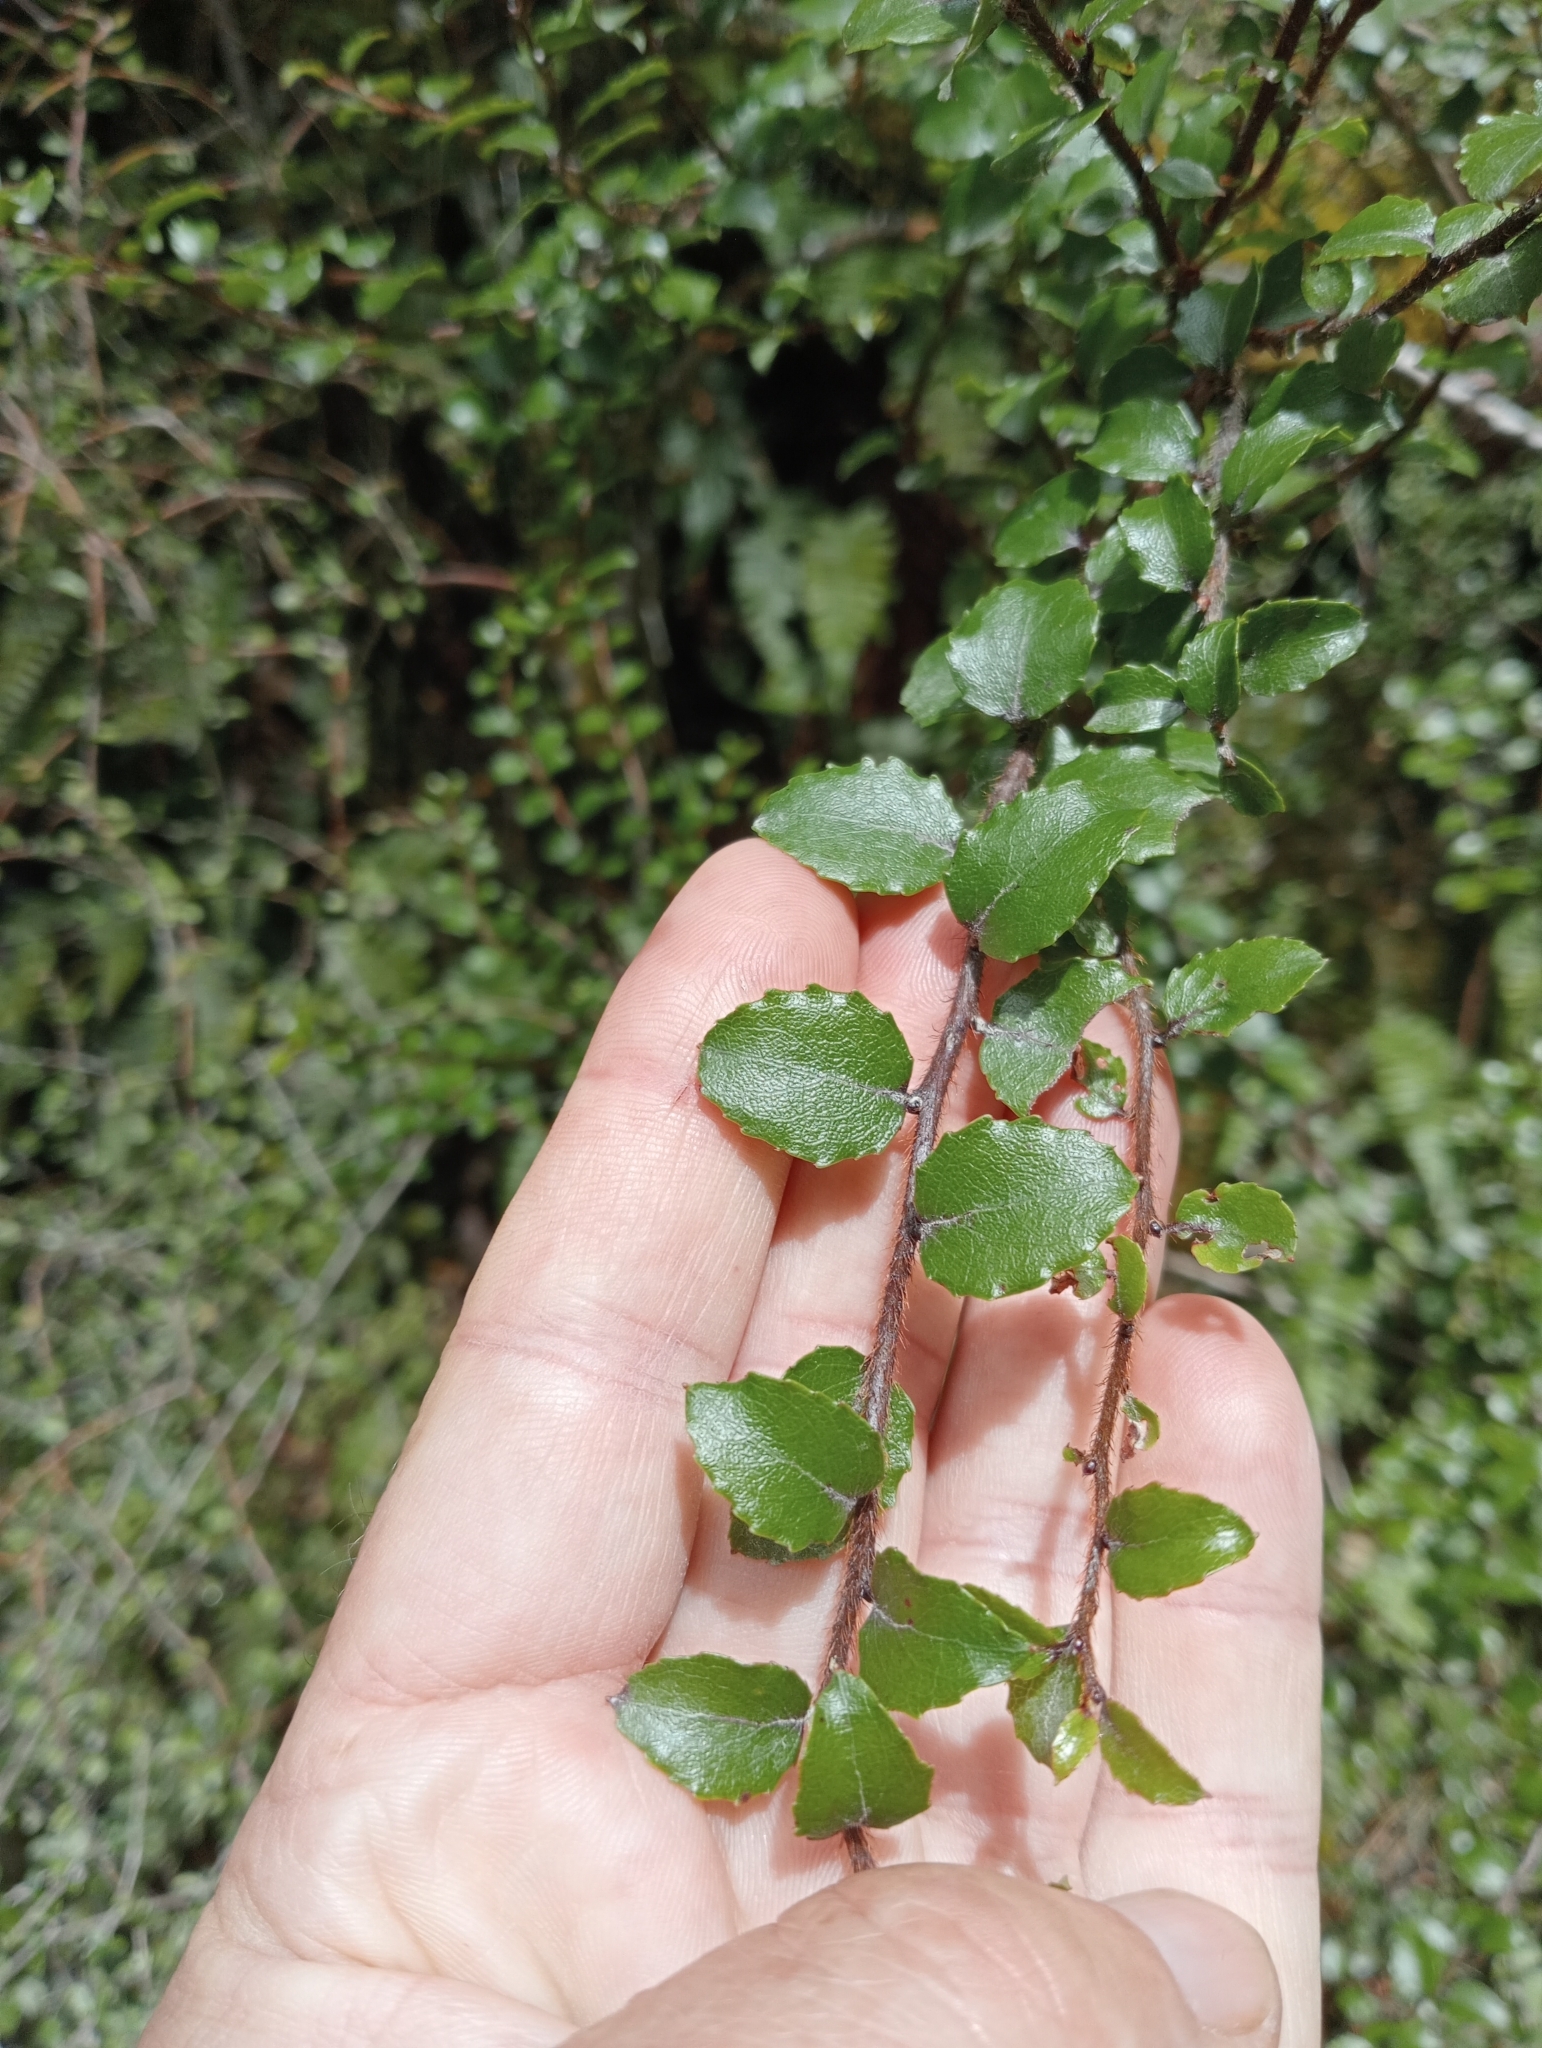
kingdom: Plantae
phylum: Tracheophyta
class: Magnoliopsida
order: Ericales
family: Ericaceae
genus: Gaultheria
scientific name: Gaultheria antipoda
